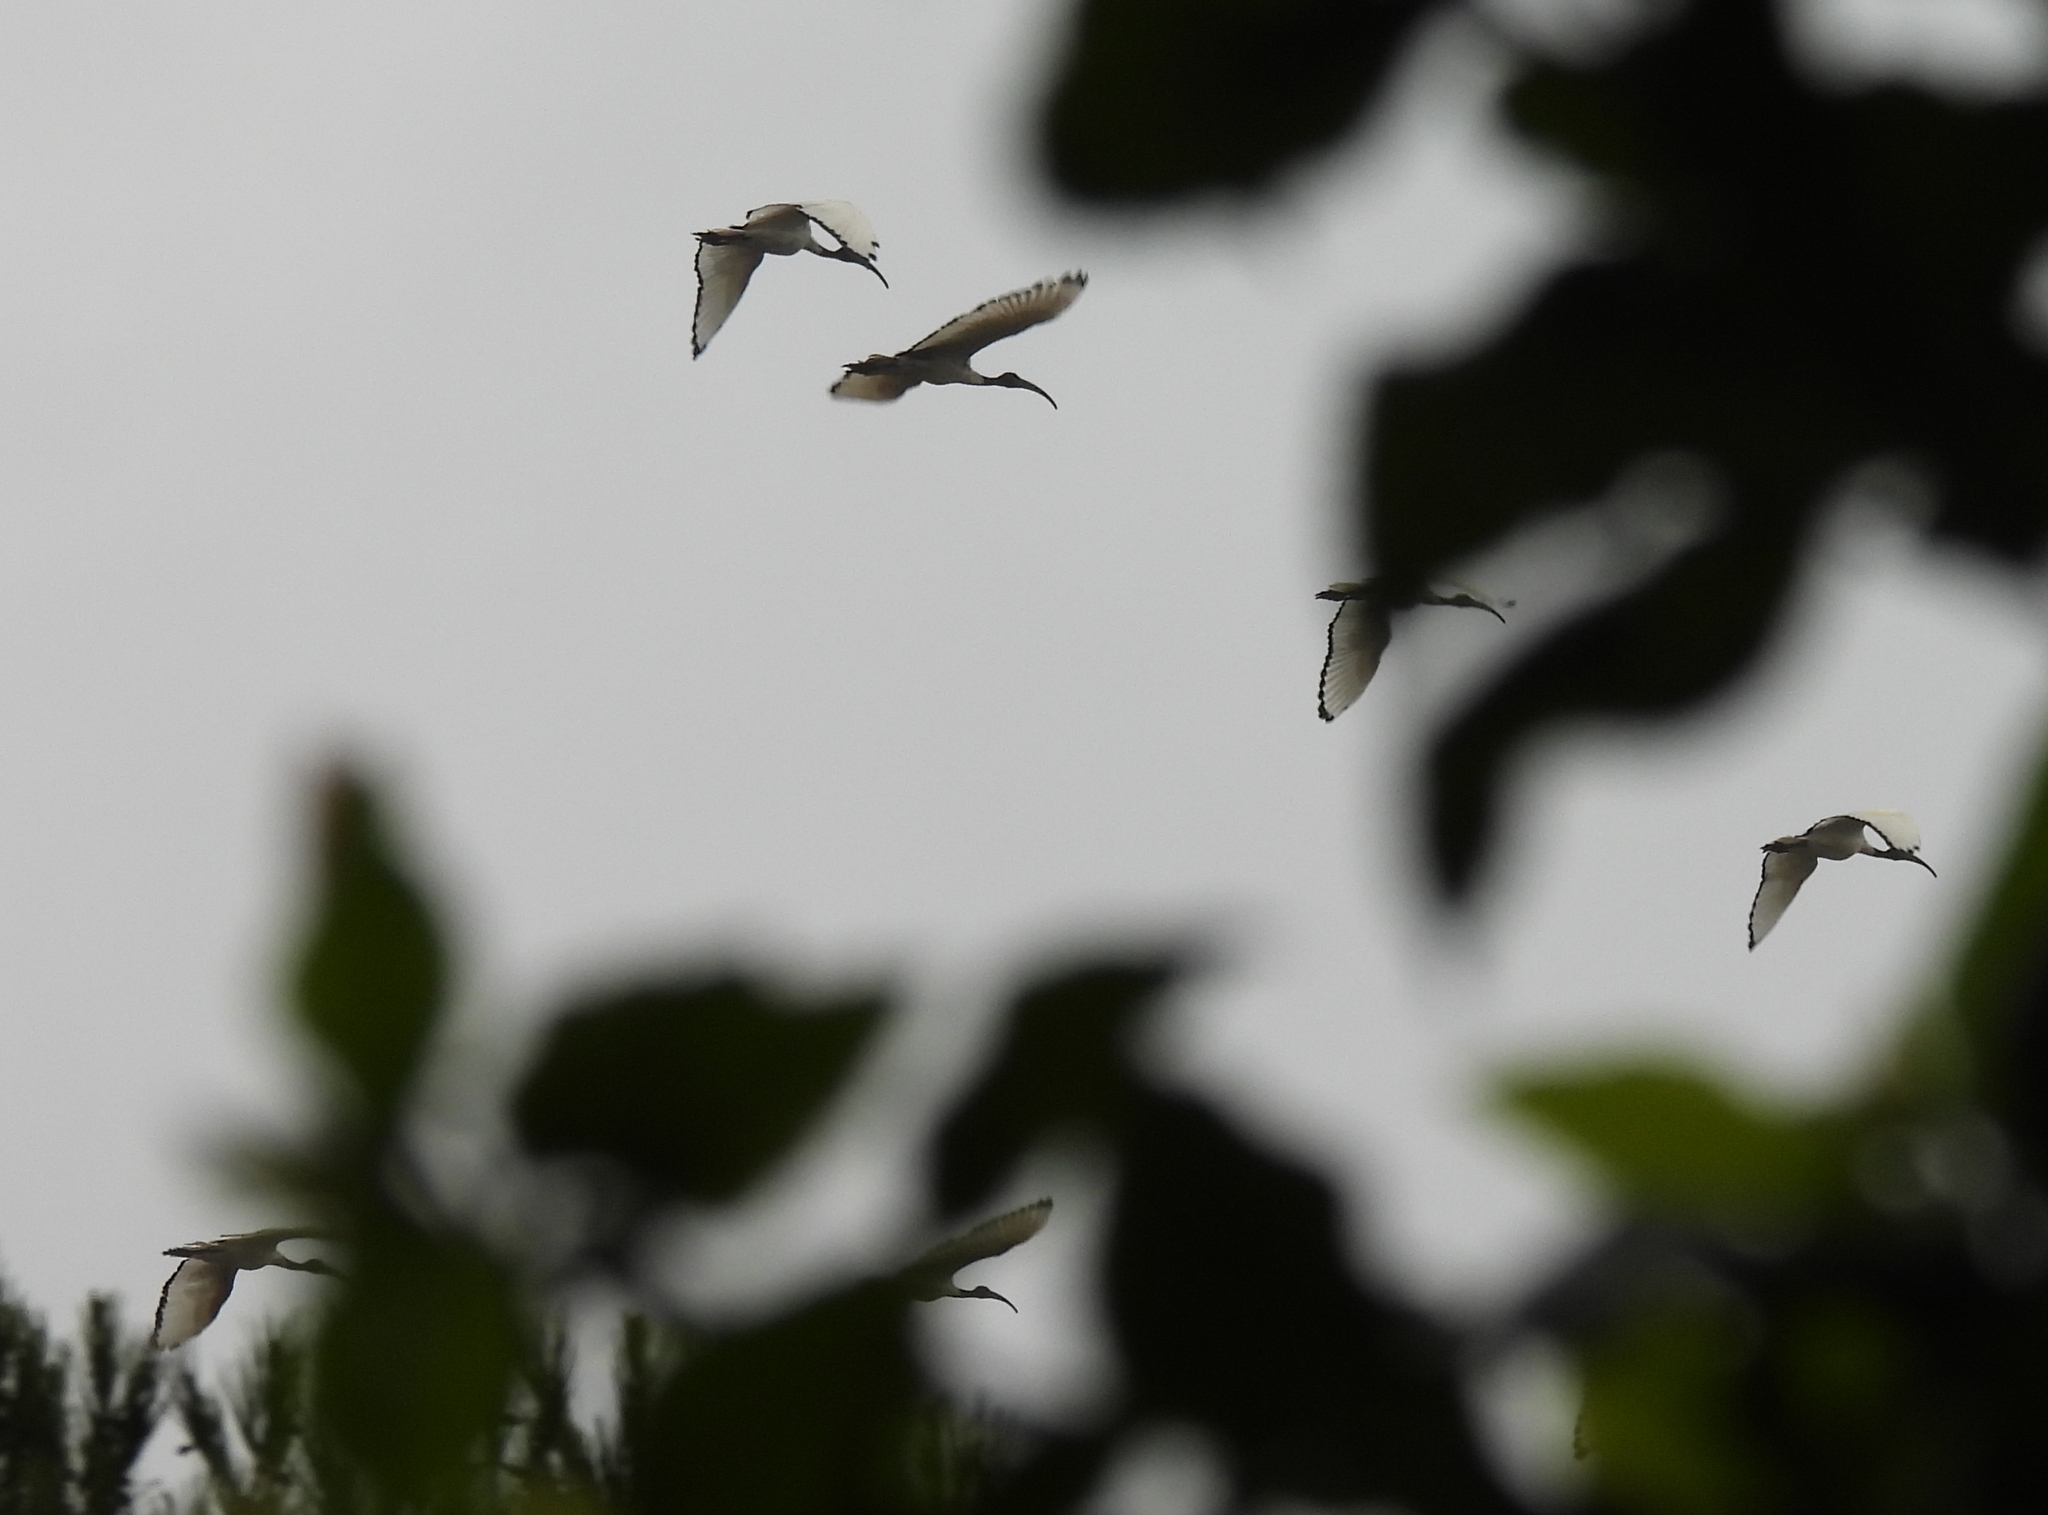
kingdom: Animalia
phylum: Chordata
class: Aves
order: Pelecaniformes
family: Threskiornithidae
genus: Threskiornis
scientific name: Threskiornis aethiopicus
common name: Sacred ibis
